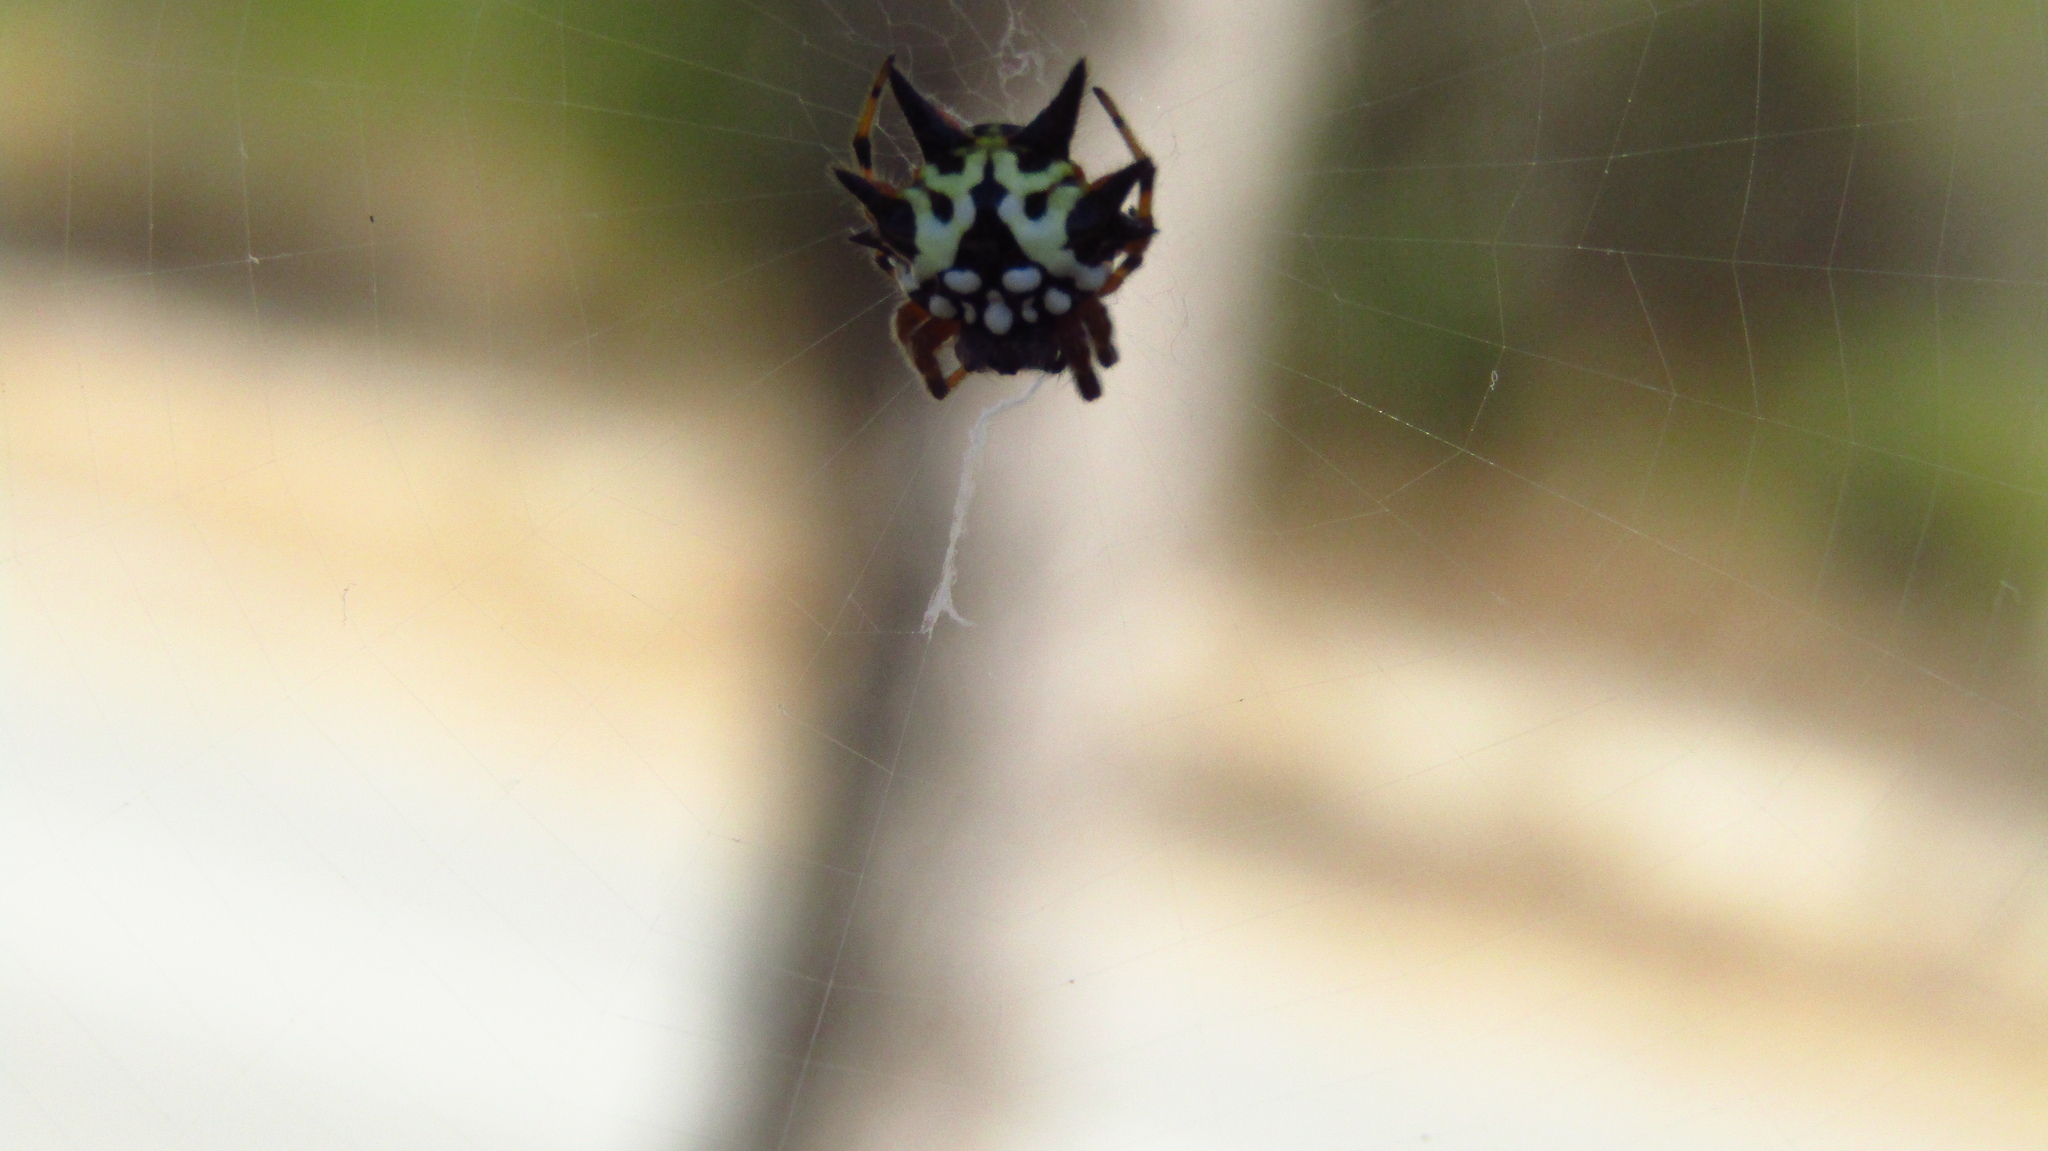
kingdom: Animalia
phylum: Arthropoda
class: Arachnida
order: Araneae
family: Araneidae
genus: Austracantha
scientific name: Austracantha minax
